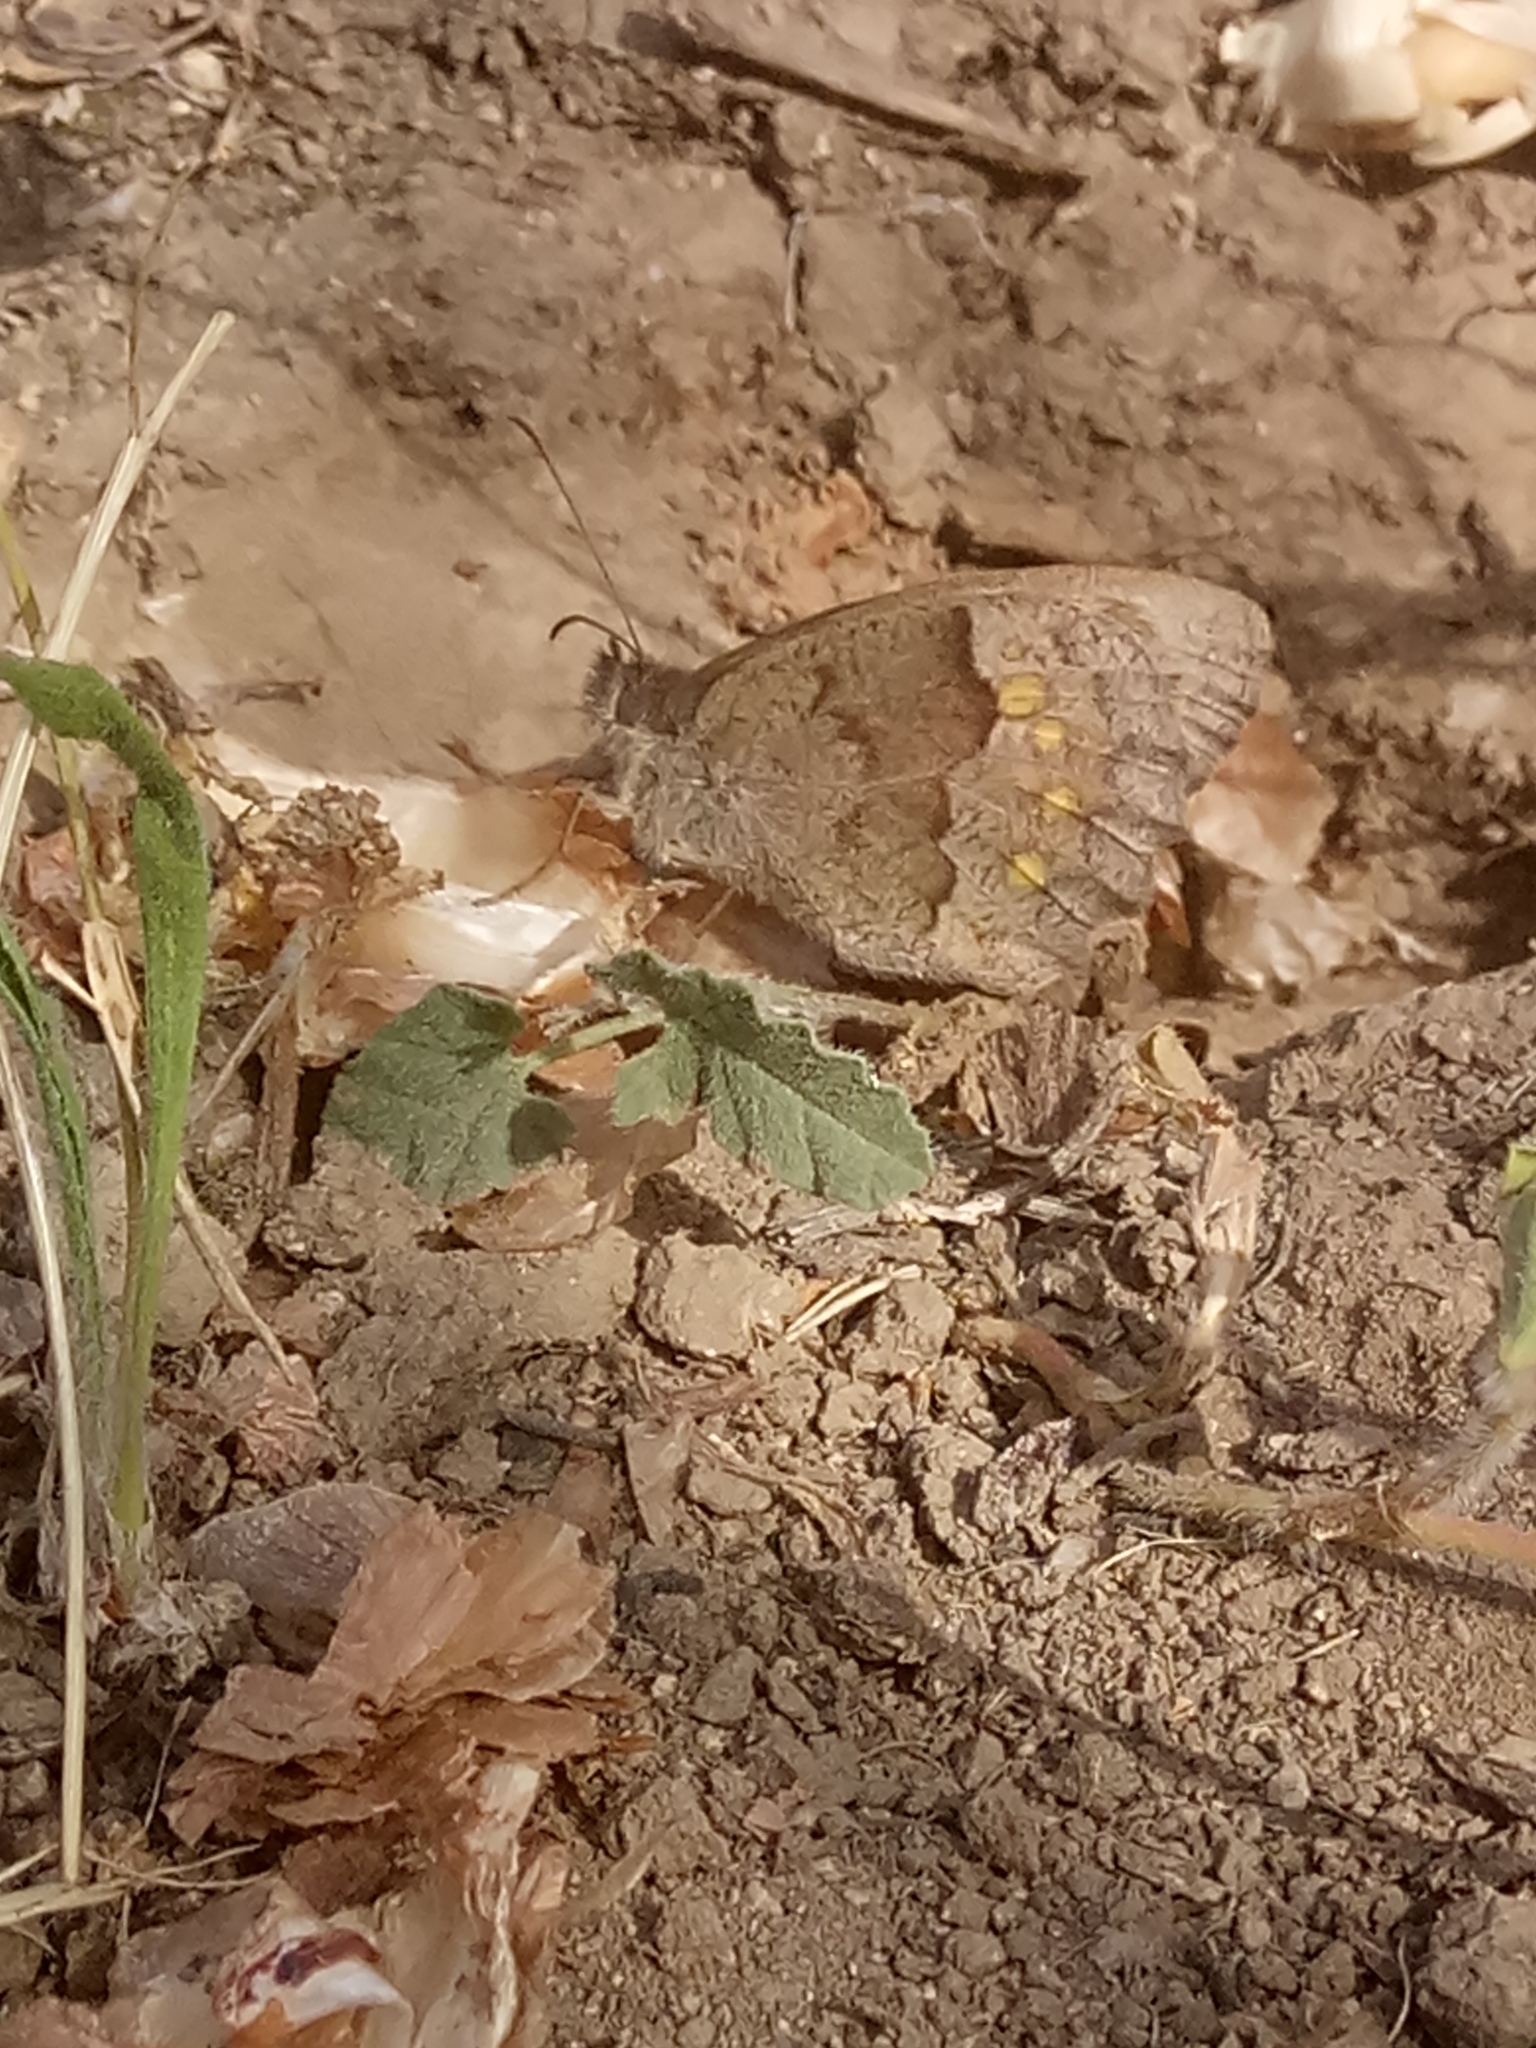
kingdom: Animalia
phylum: Arthropoda
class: Insecta
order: Lepidoptera
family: Nymphalidae
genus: Pyronia
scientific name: Pyronia janiroides
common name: False meadow brown
